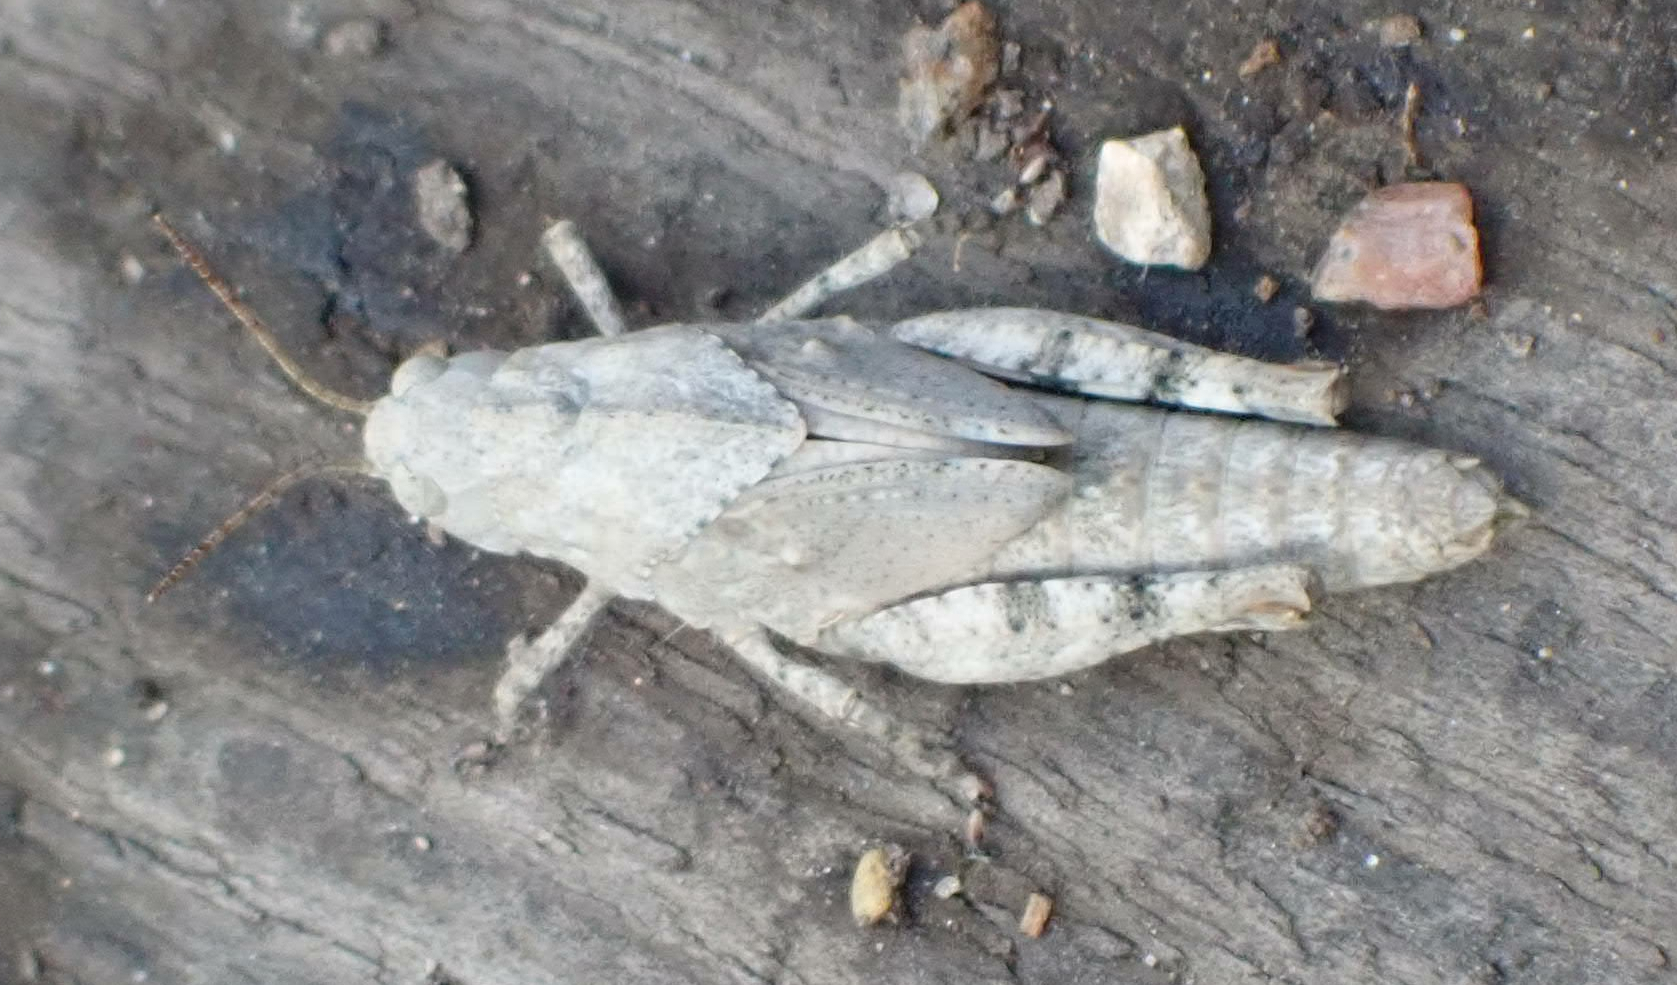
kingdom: Animalia
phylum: Arthropoda
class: Insecta
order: Orthoptera
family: Acrididae
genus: Dissosteira
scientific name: Dissosteira carolina
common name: Carolina grasshopper
